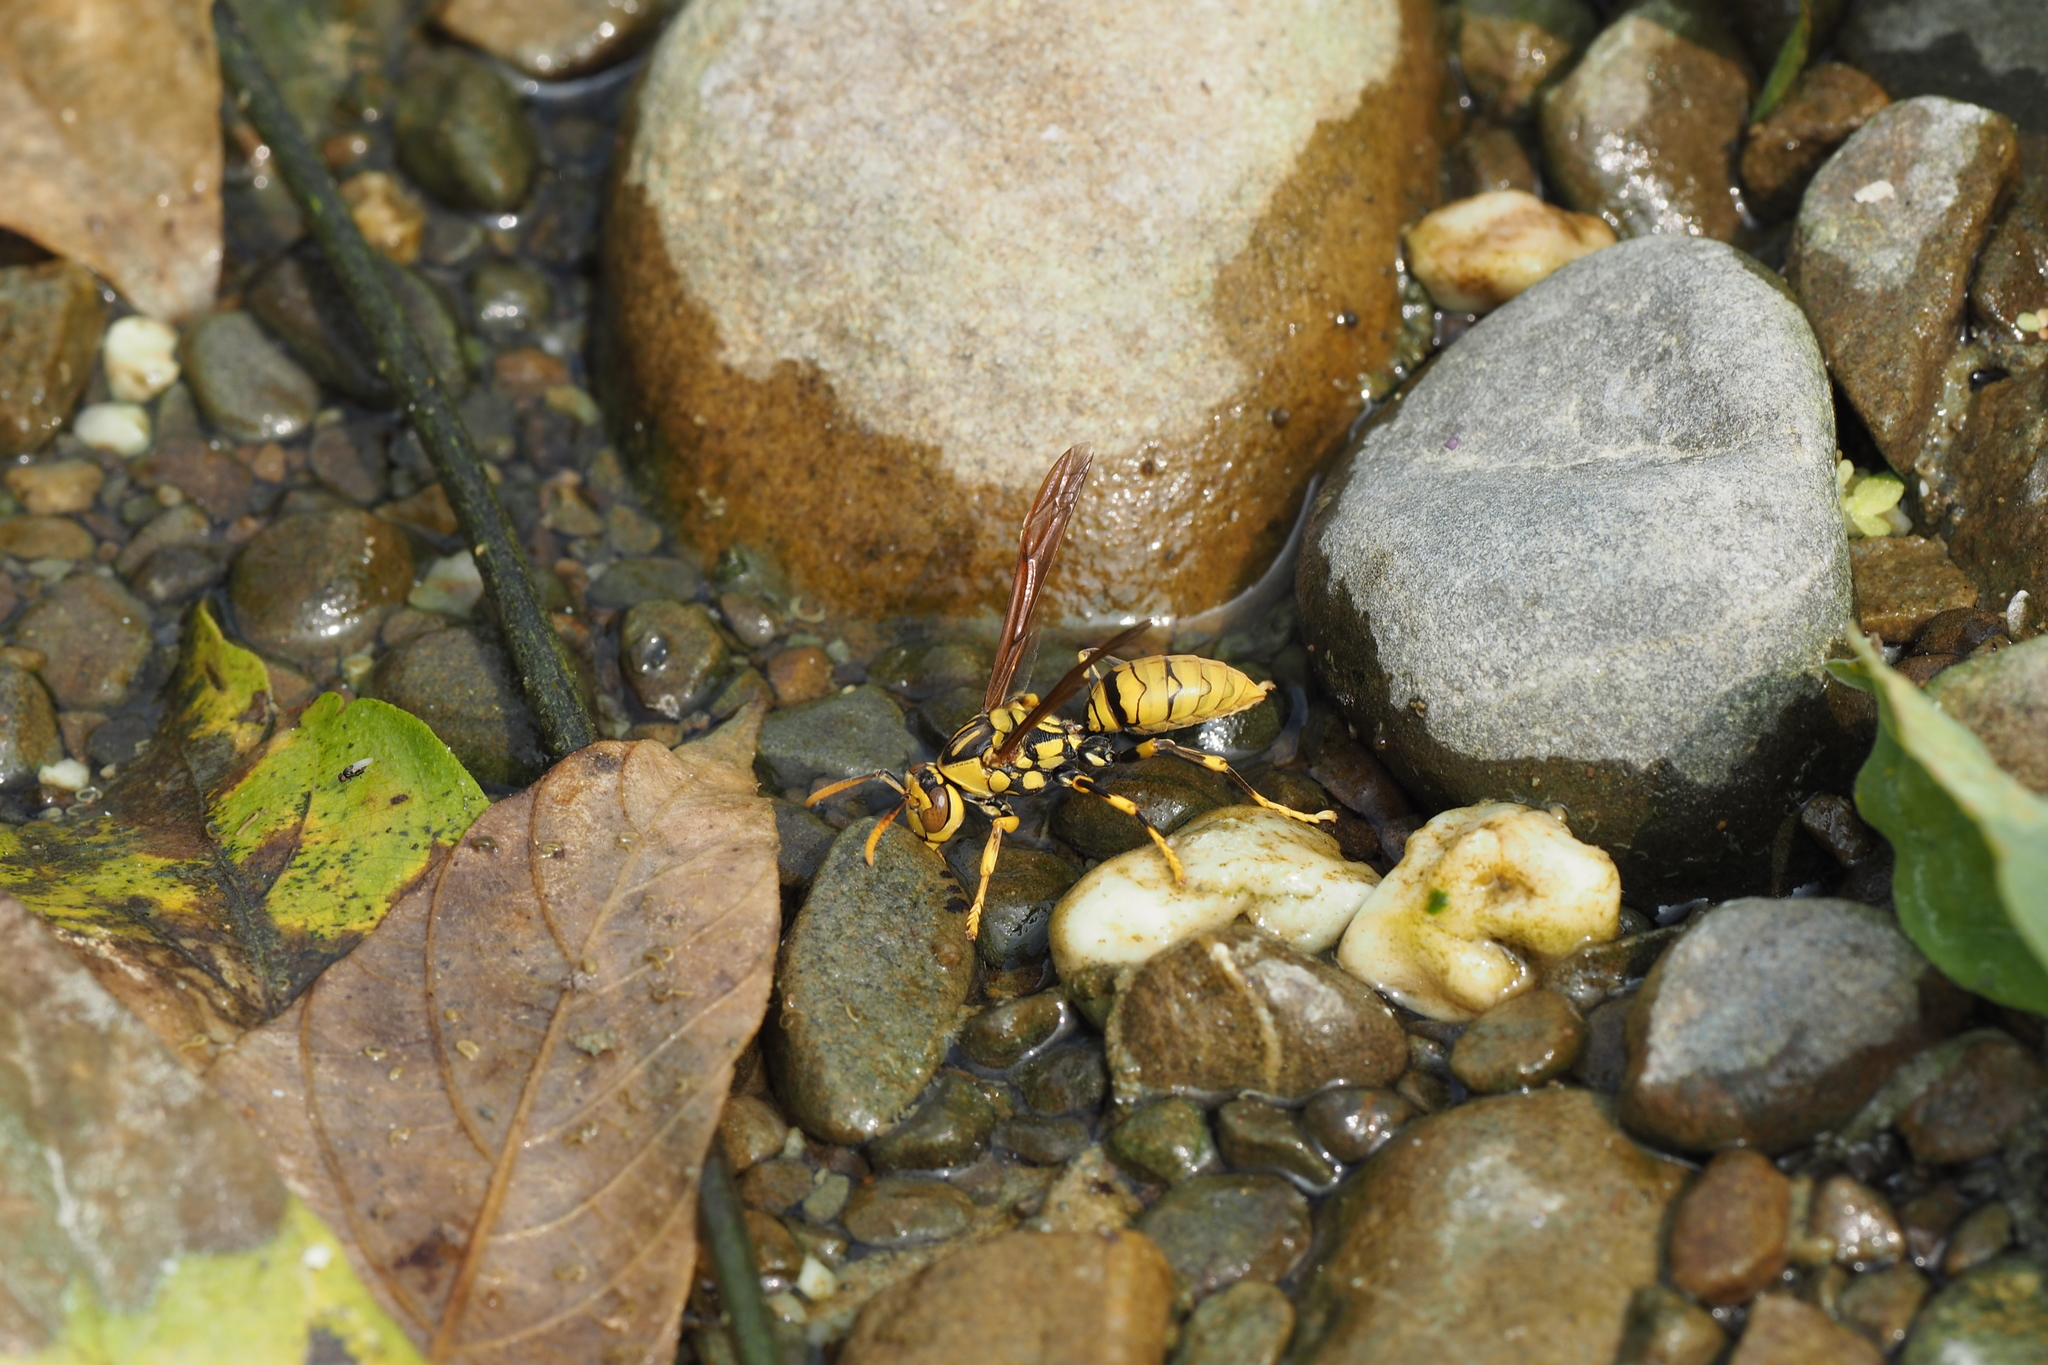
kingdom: Animalia
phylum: Arthropoda
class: Insecta
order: Hymenoptera
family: Eumenidae
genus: Polistes
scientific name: Polistes rothneyi
